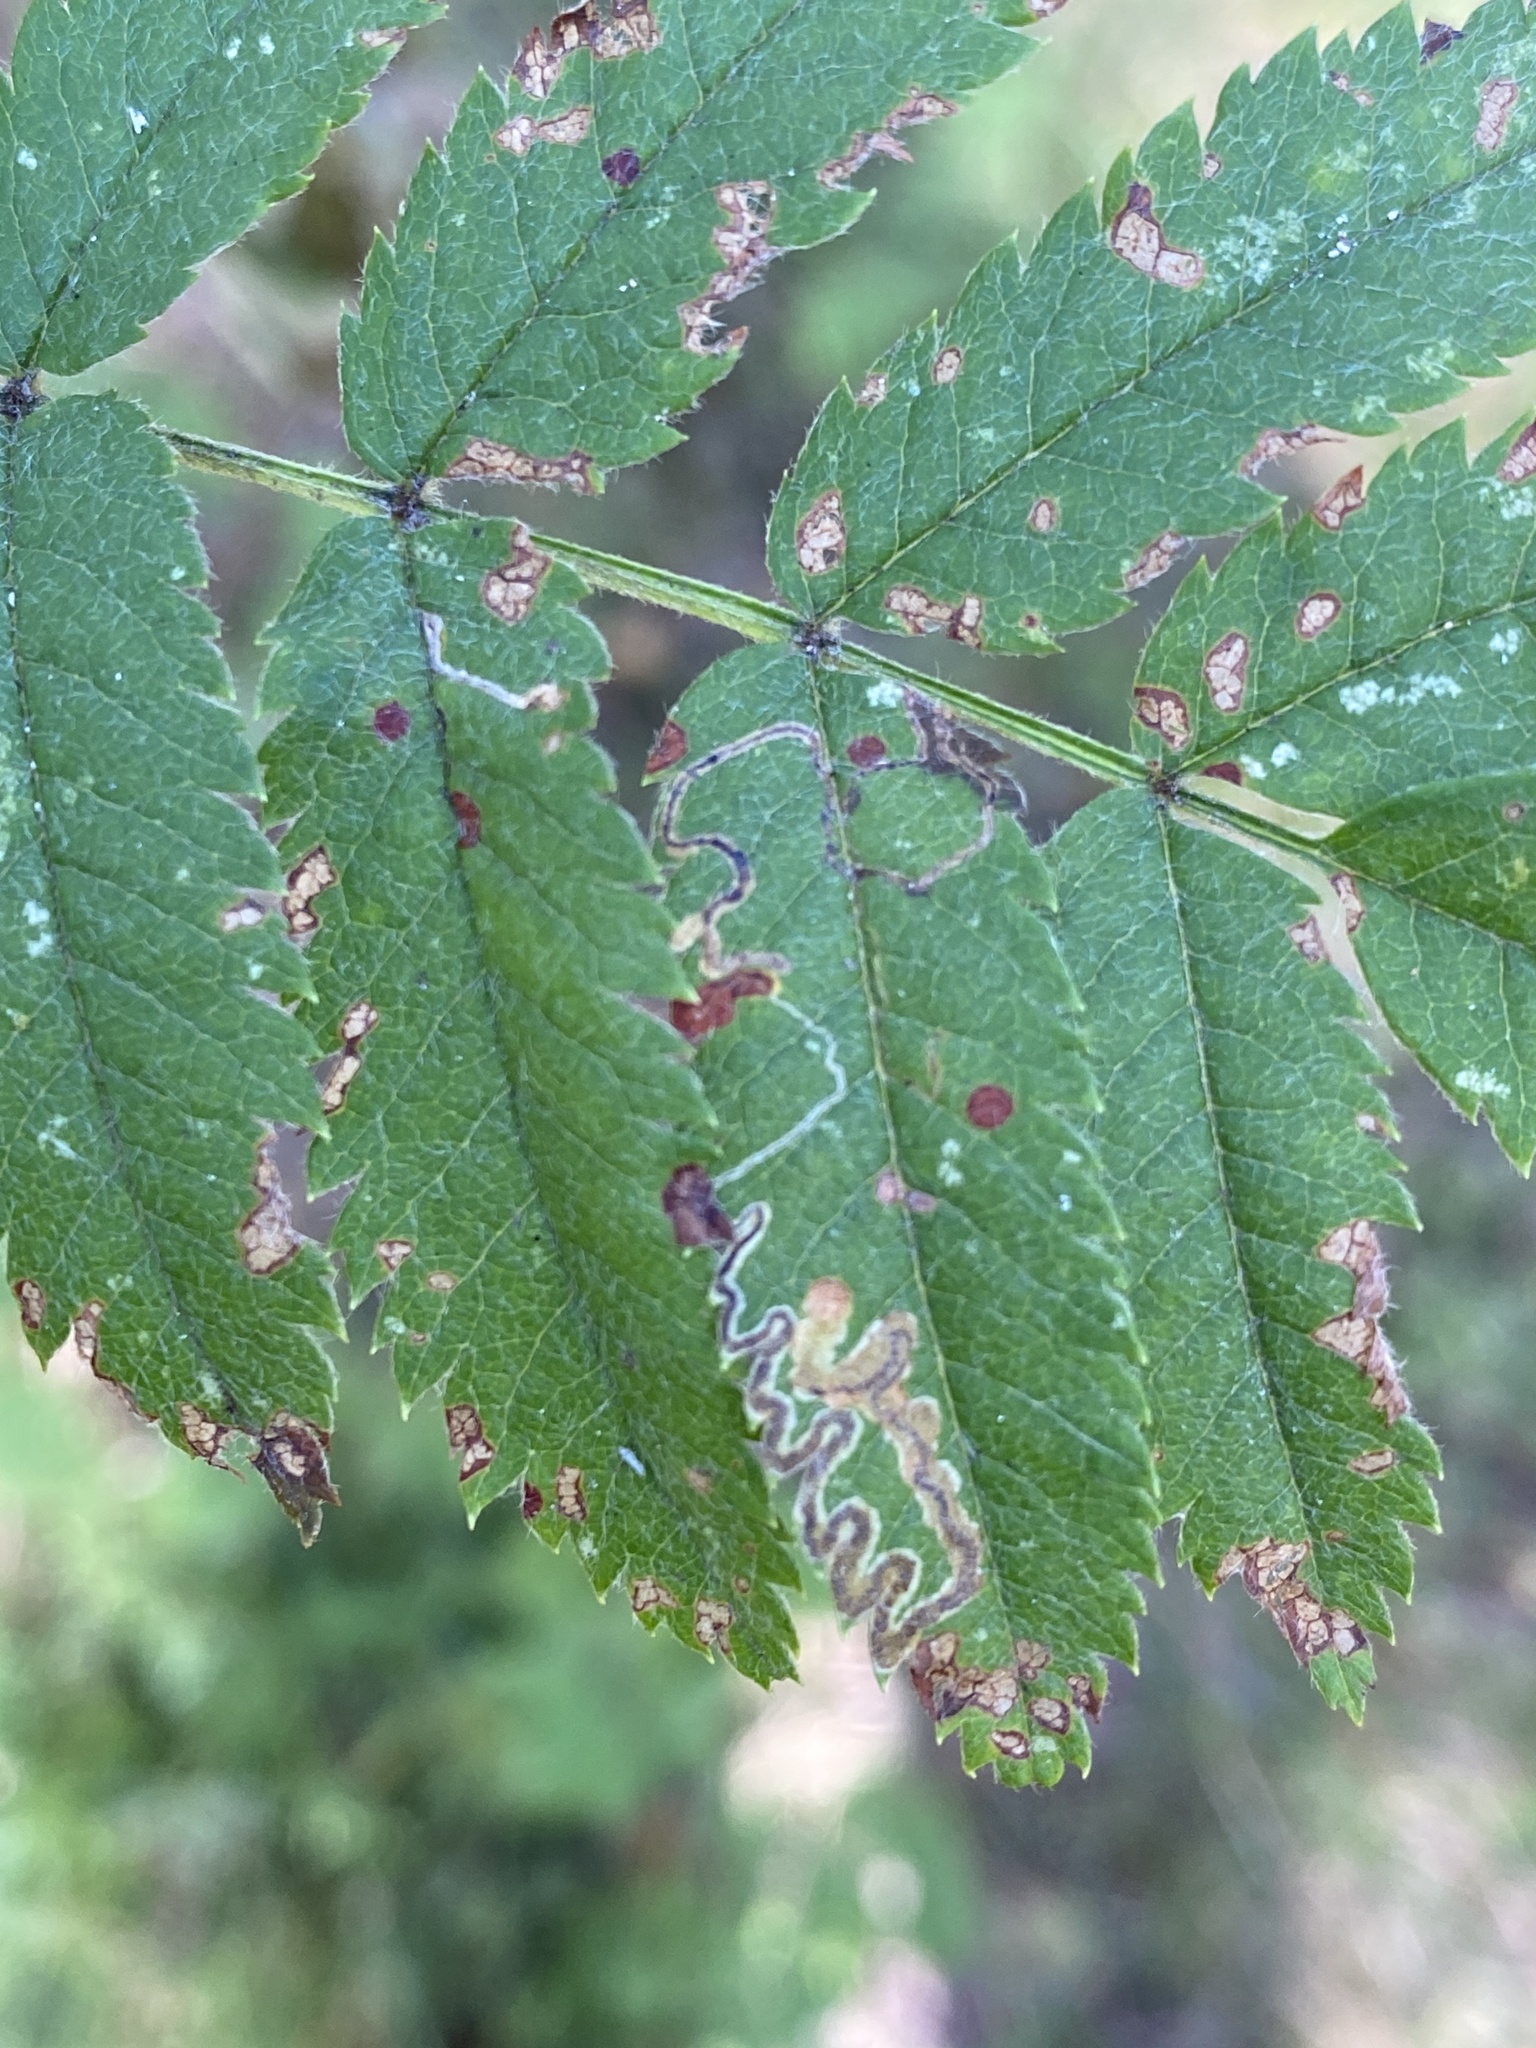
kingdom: Plantae
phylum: Tracheophyta
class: Magnoliopsida
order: Rosales
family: Rosaceae
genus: Sorbus
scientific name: Sorbus aucuparia
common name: Rowan
